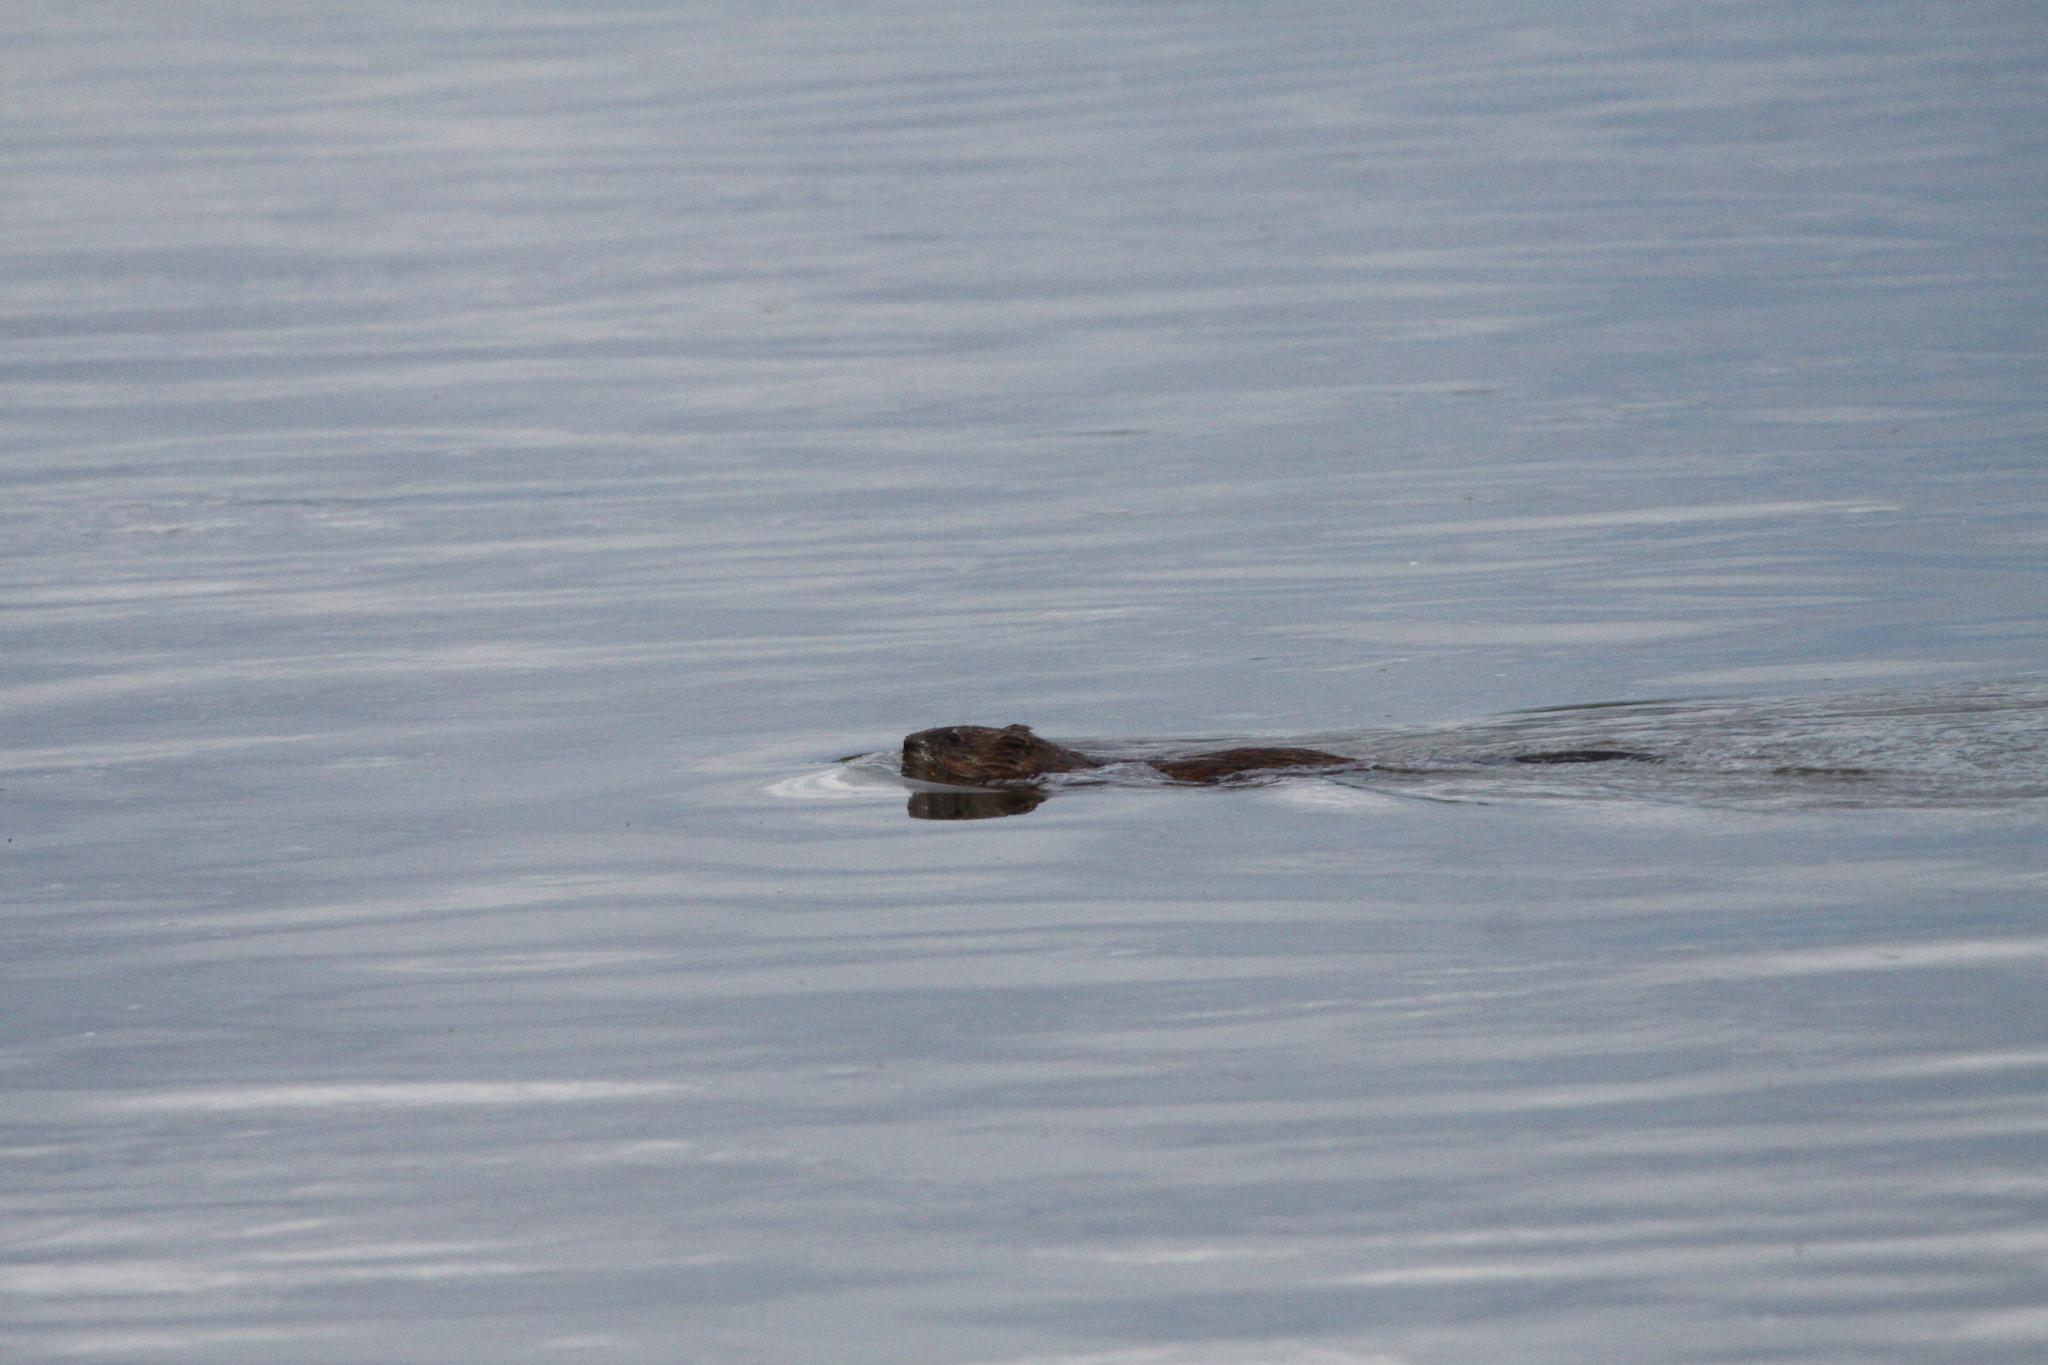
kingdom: Animalia
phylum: Chordata
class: Mammalia
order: Rodentia
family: Cricetidae
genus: Ondatra
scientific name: Ondatra zibethicus
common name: Muskrat
